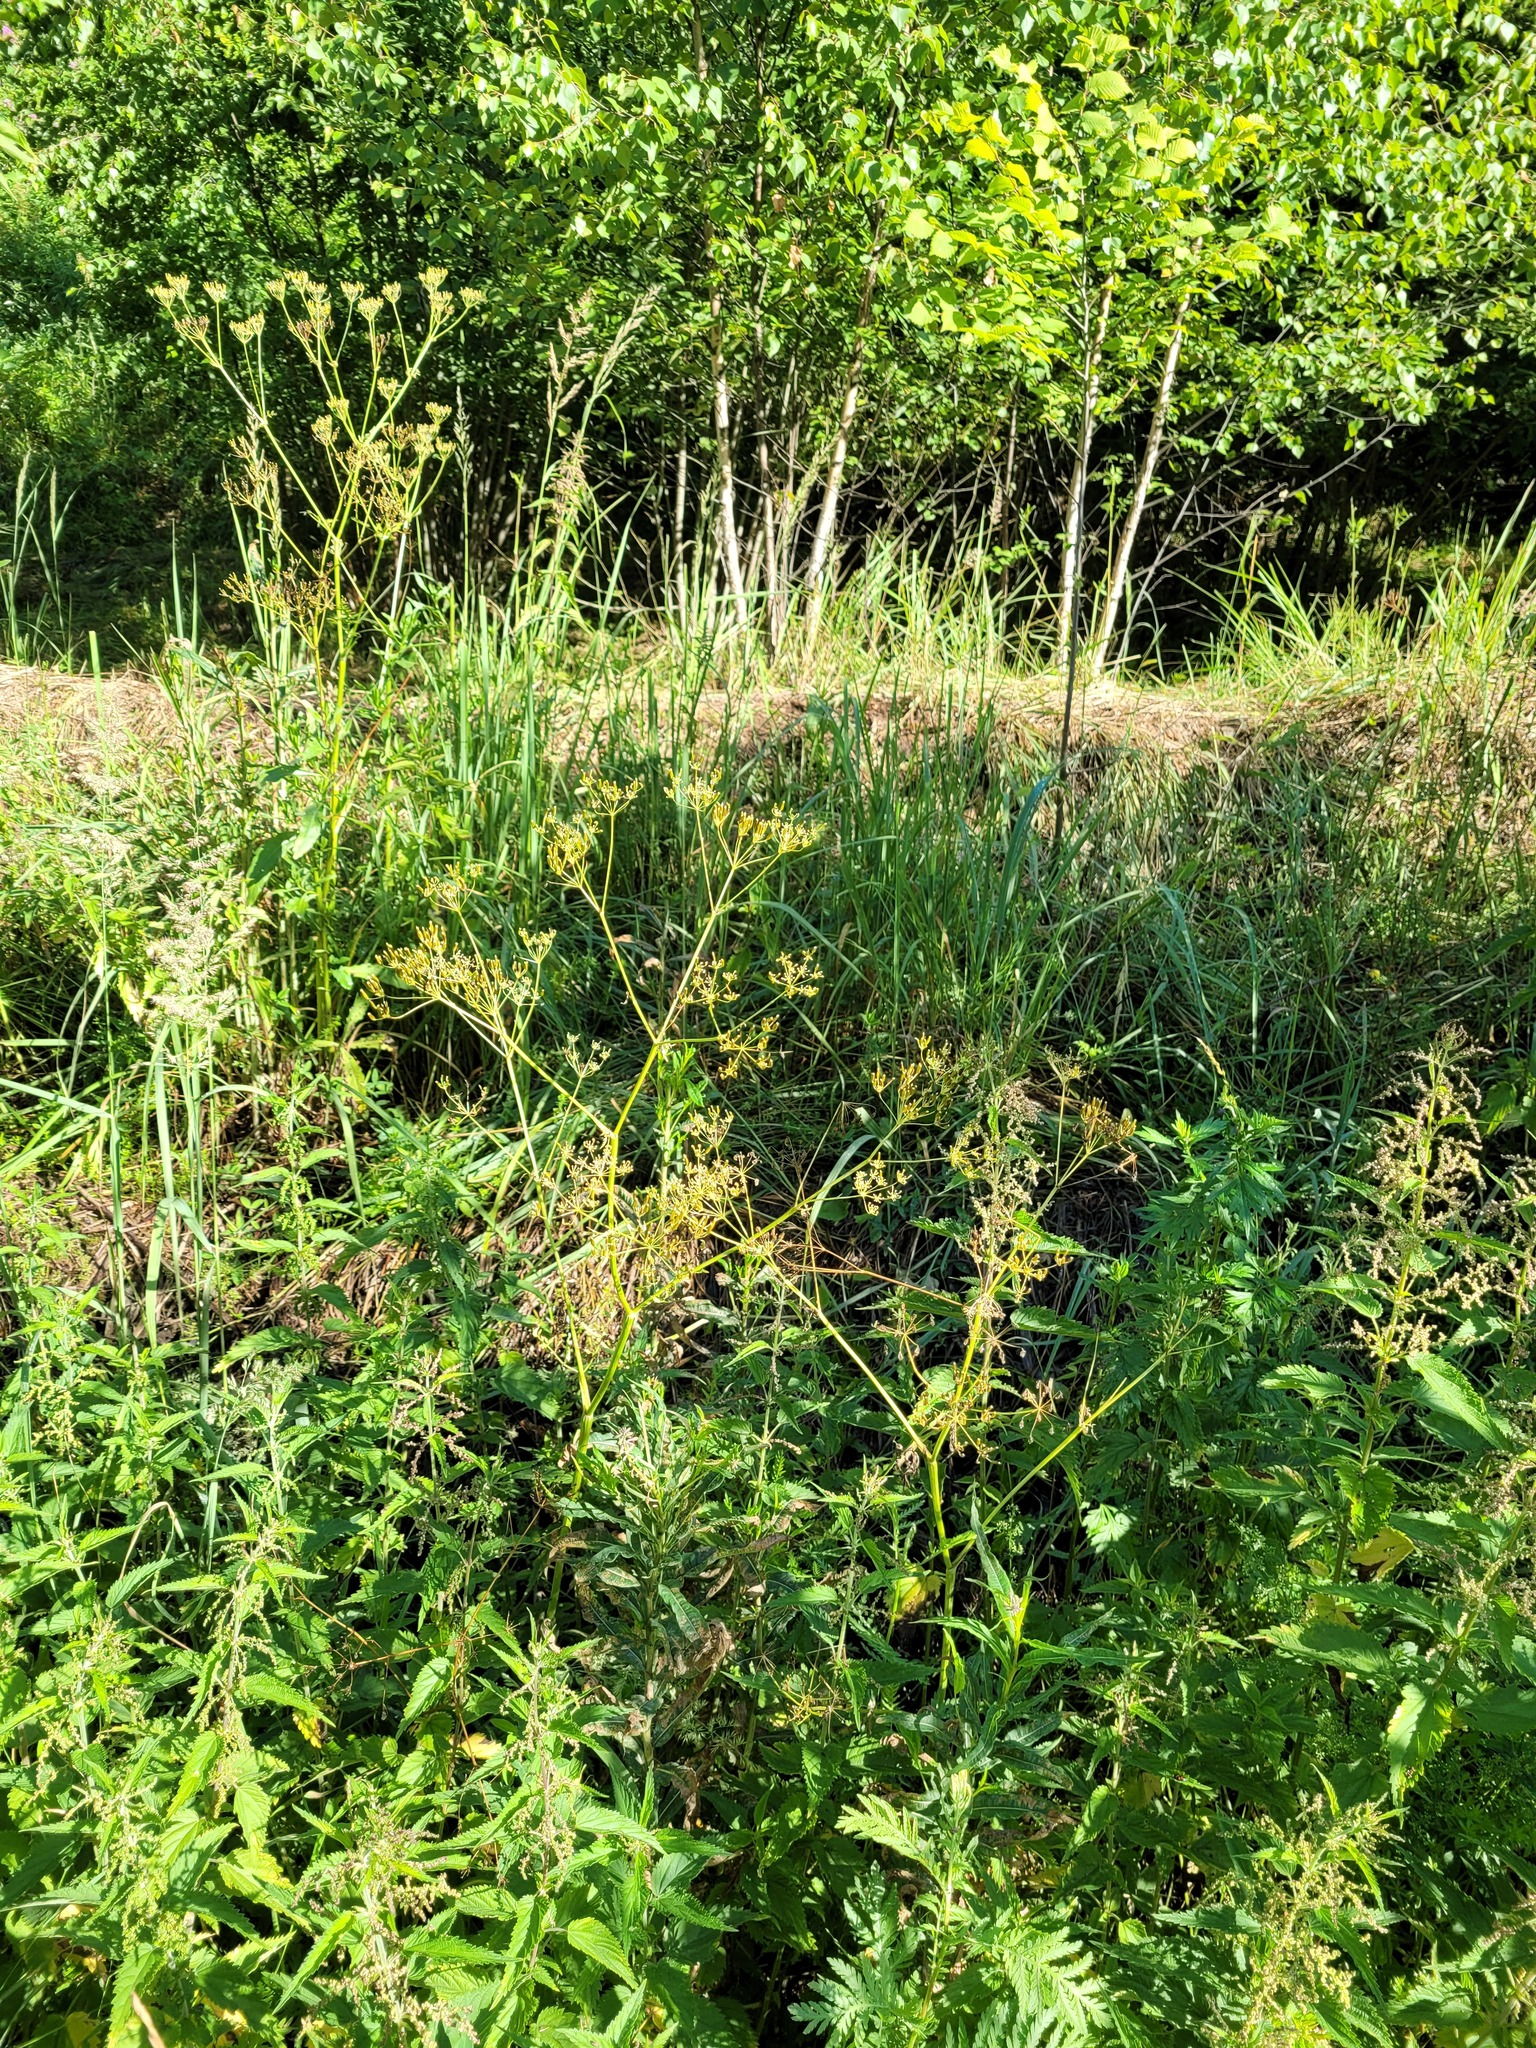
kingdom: Plantae
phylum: Tracheophyta
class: Magnoliopsida
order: Apiales
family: Apiaceae
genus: Anthriscus
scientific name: Anthriscus sylvestris
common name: Cow parsley
